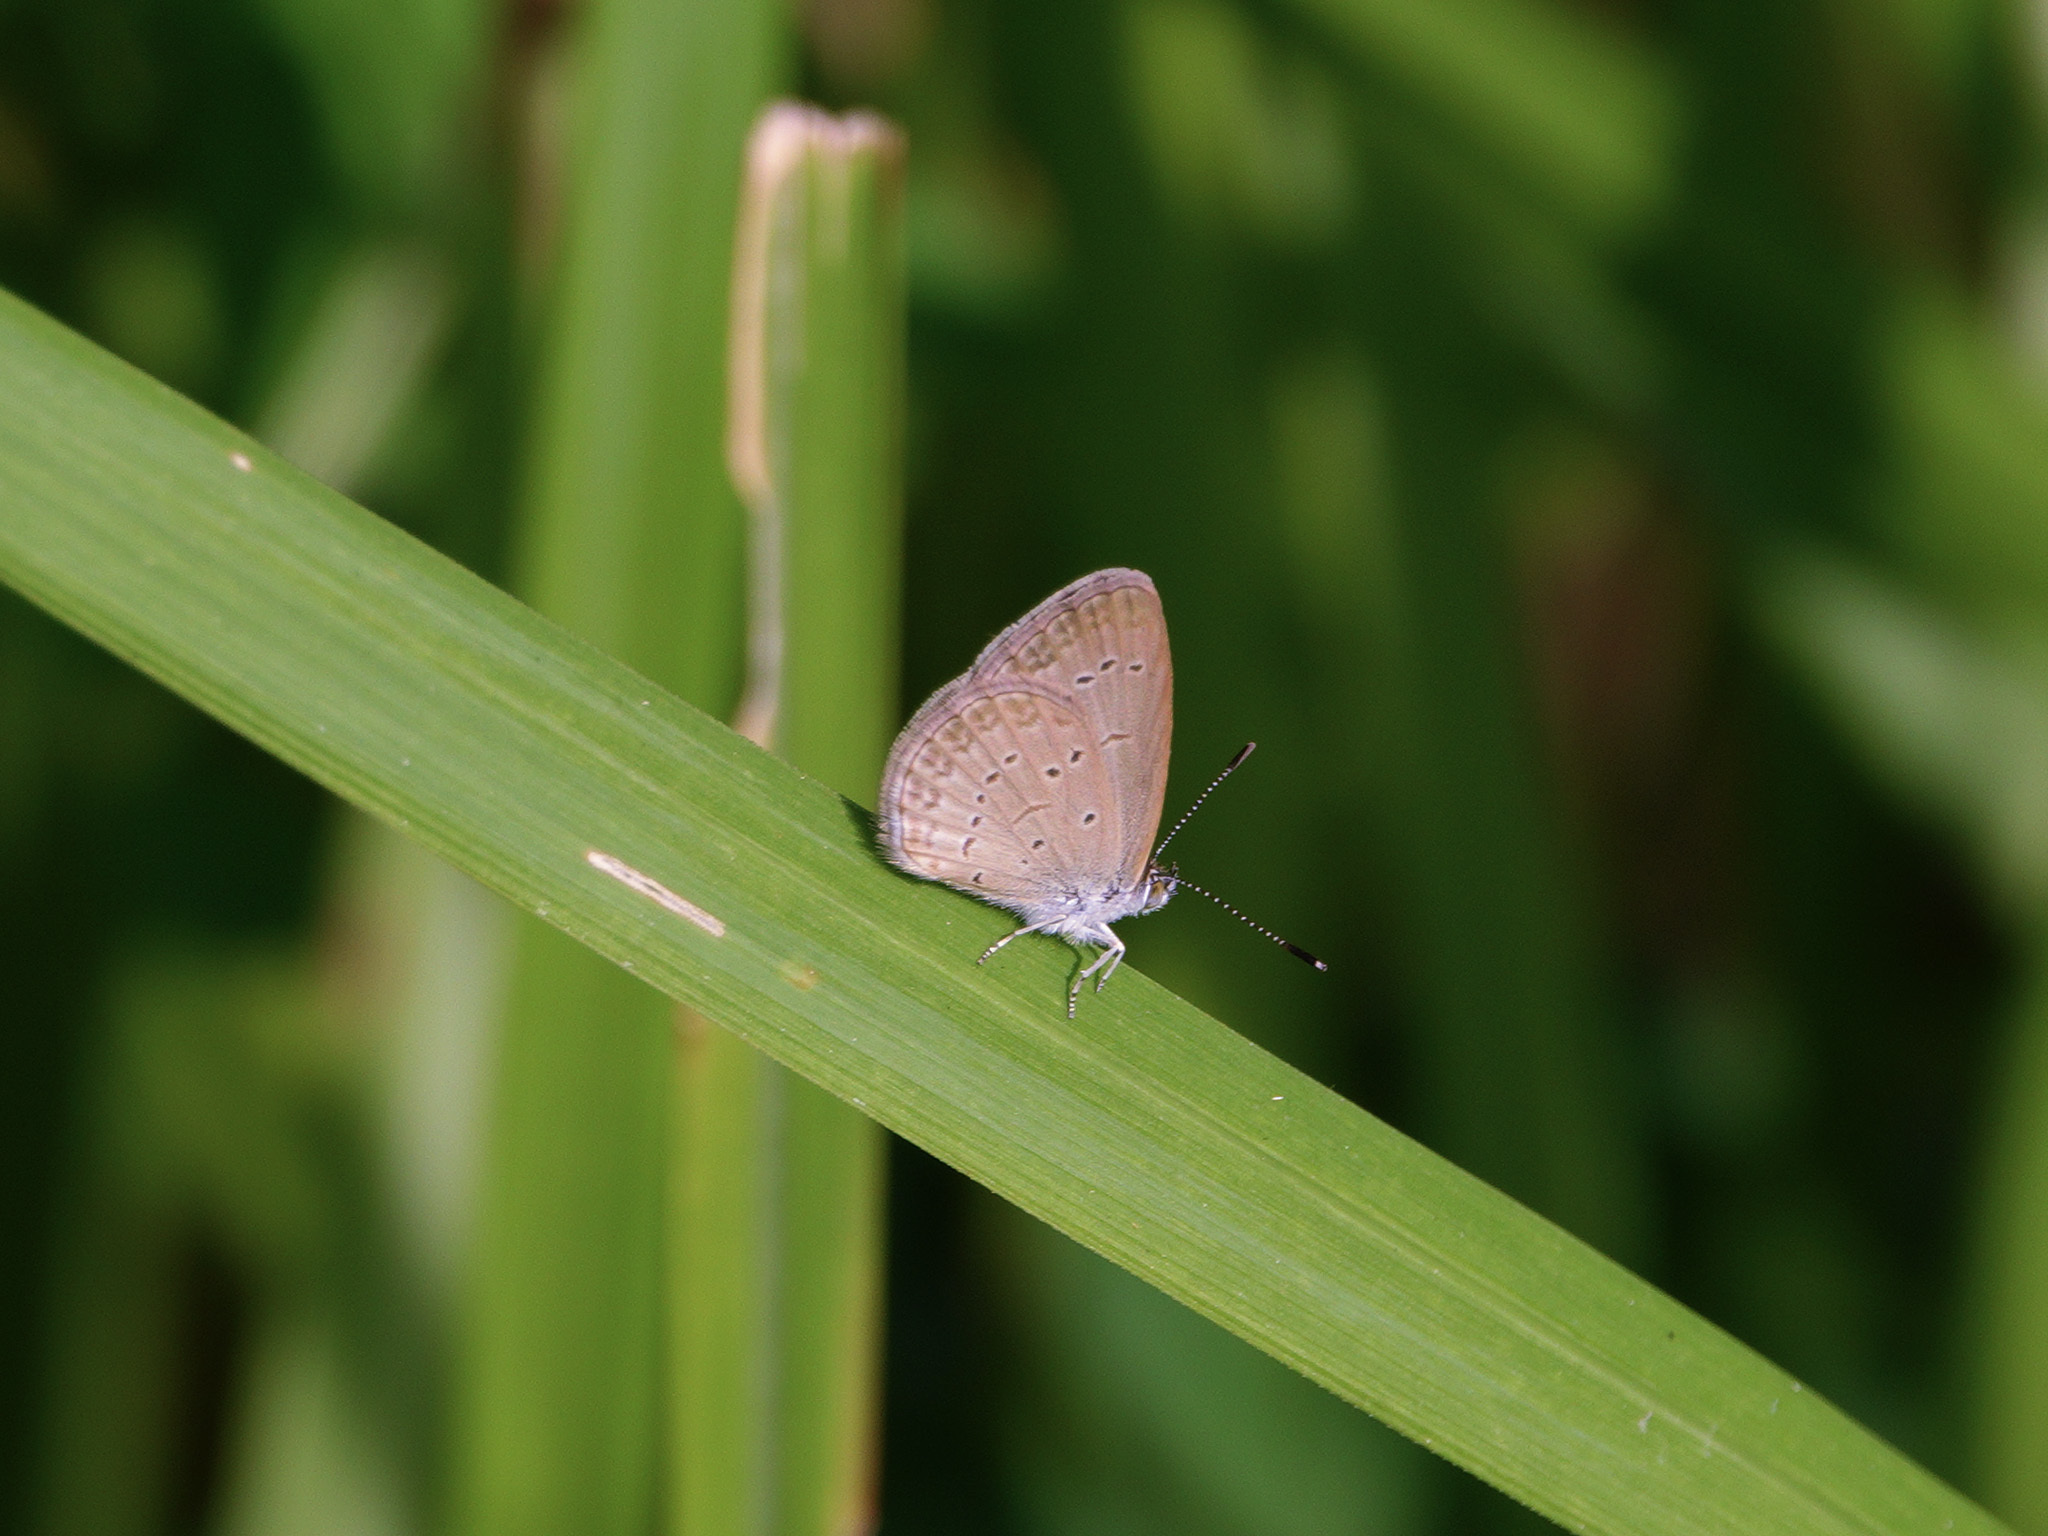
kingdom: Animalia
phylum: Arthropoda
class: Insecta
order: Lepidoptera
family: Lycaenidae
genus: Zizina
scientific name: Zizina otis
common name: Lesser grass blue
